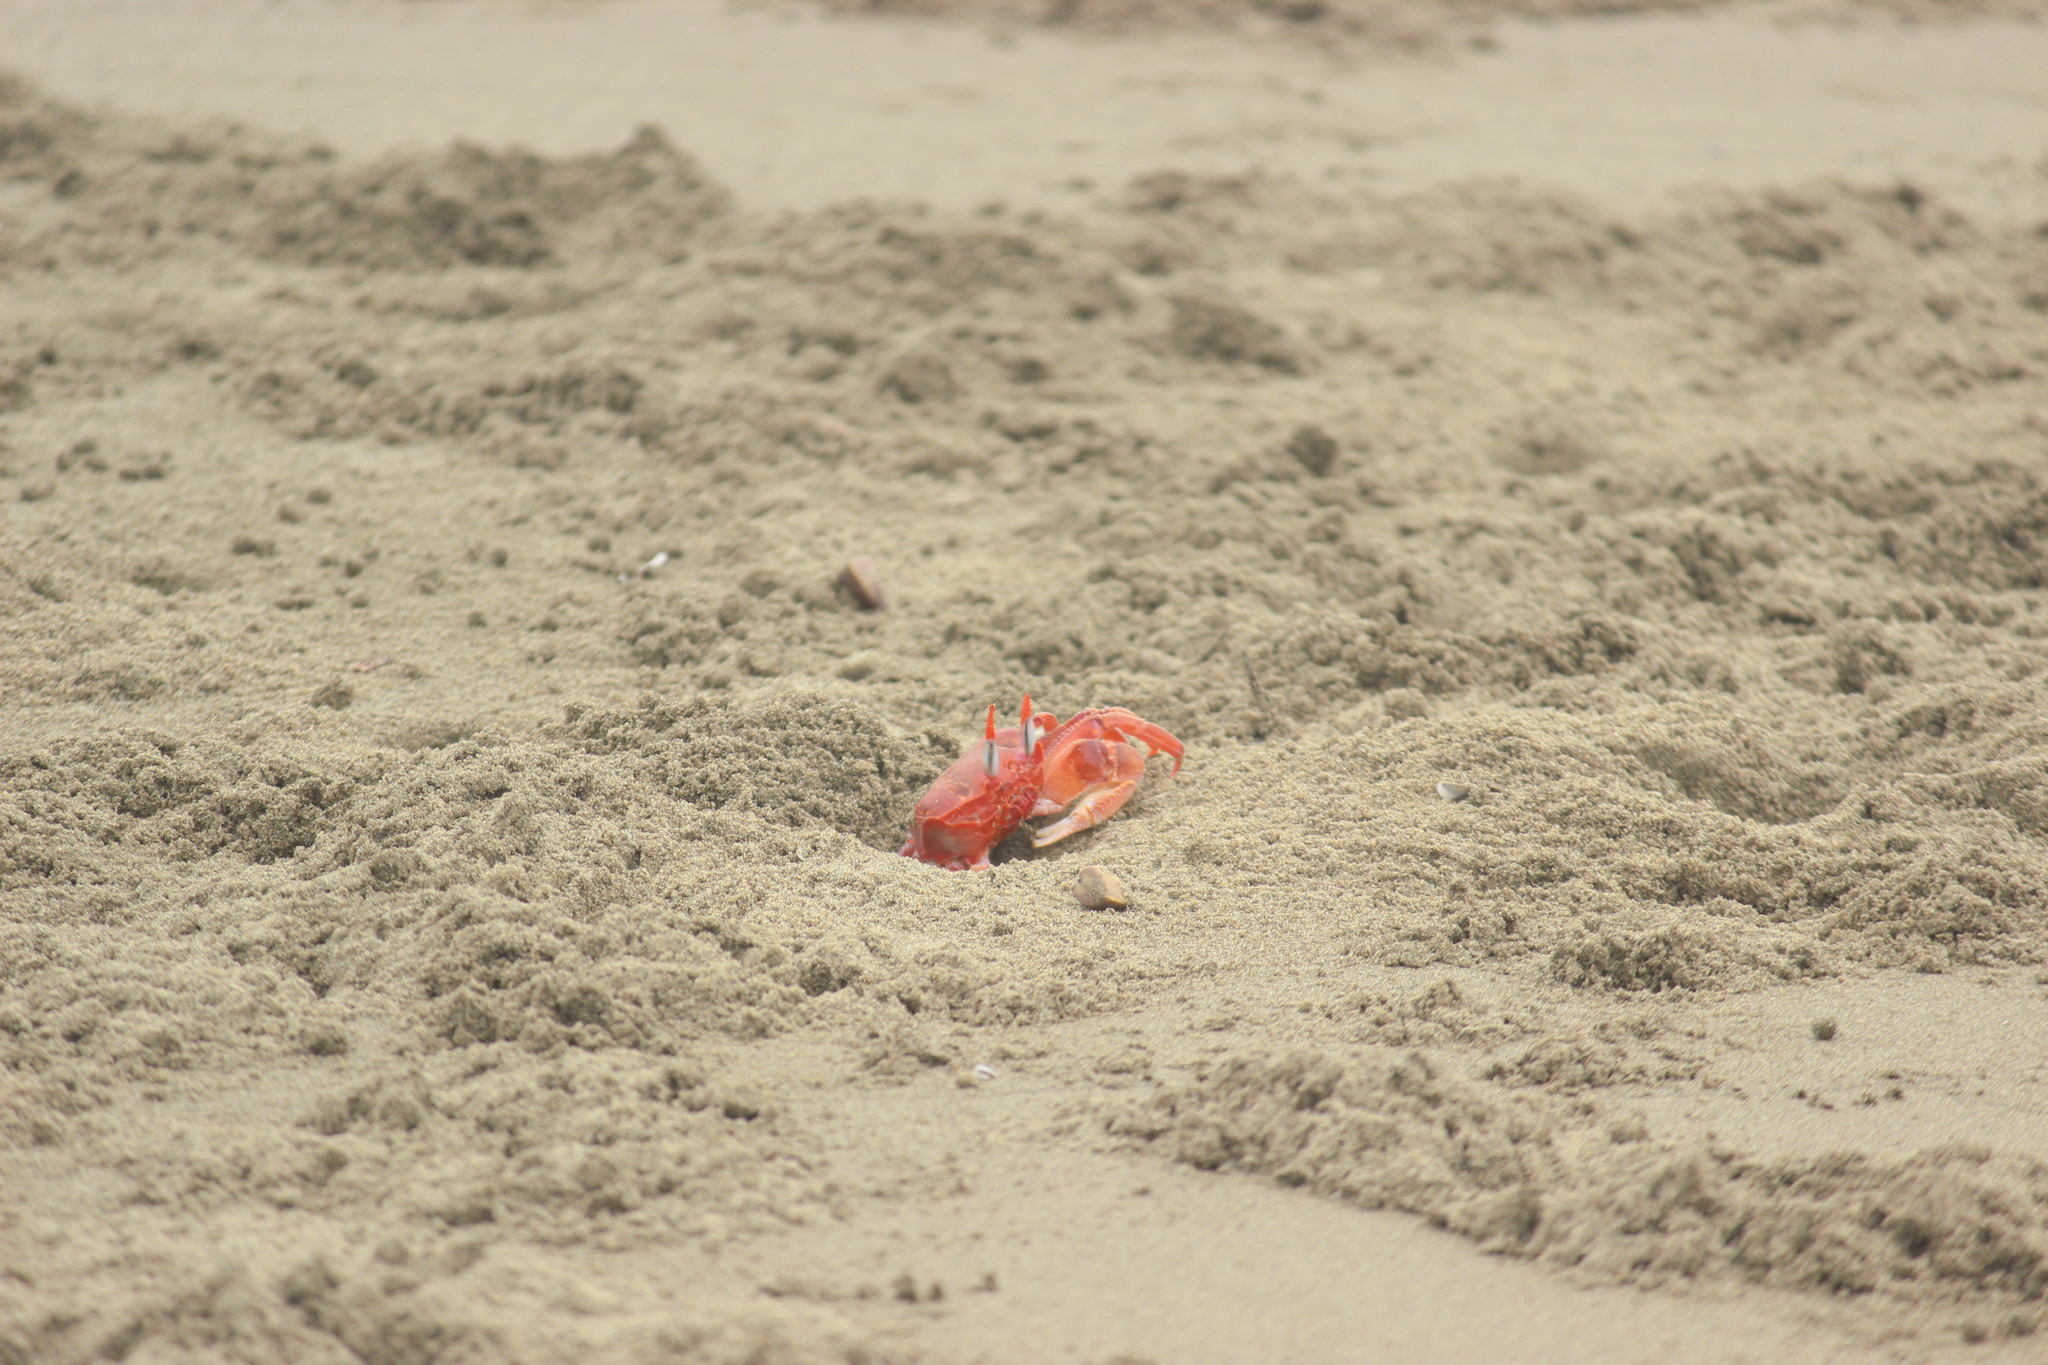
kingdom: Animalia
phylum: Arthropoda
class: Malacostraca
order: Decapoda
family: Ocypodidae
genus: Ocypode
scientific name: Ocypode gaudichaudii
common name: Pacific ghost crab
